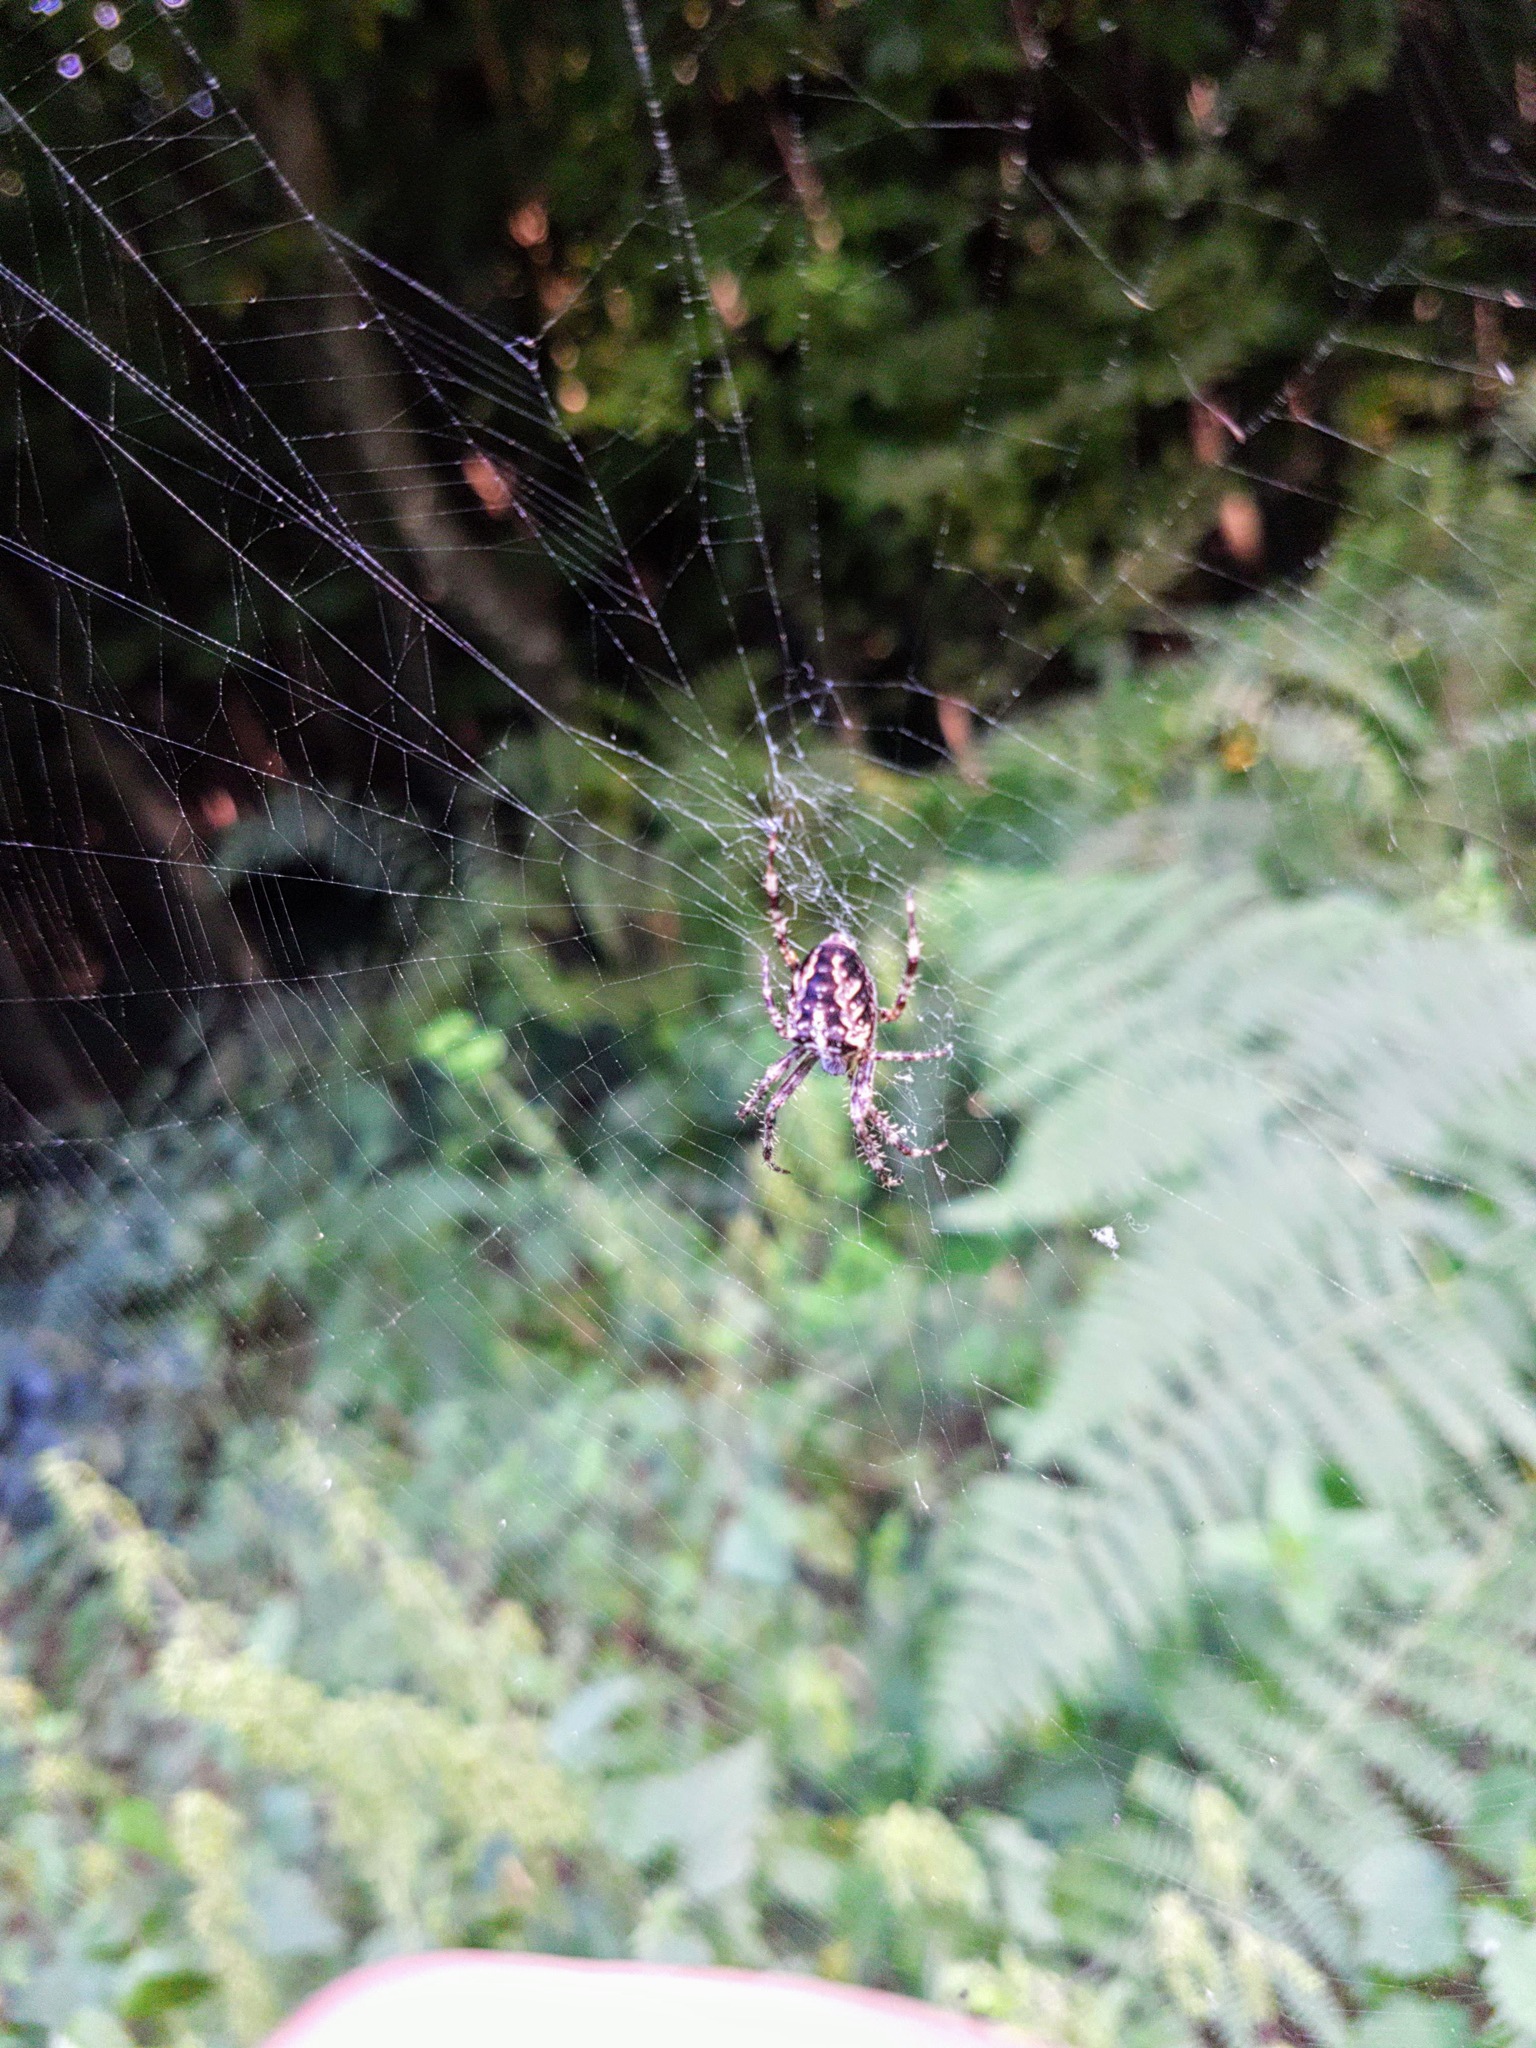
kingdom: Animalia
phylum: Arthropoda
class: Arachnida
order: Araneae
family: Araneidae
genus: Araneus
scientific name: Araneus diadematus
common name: Cross orbweaver
